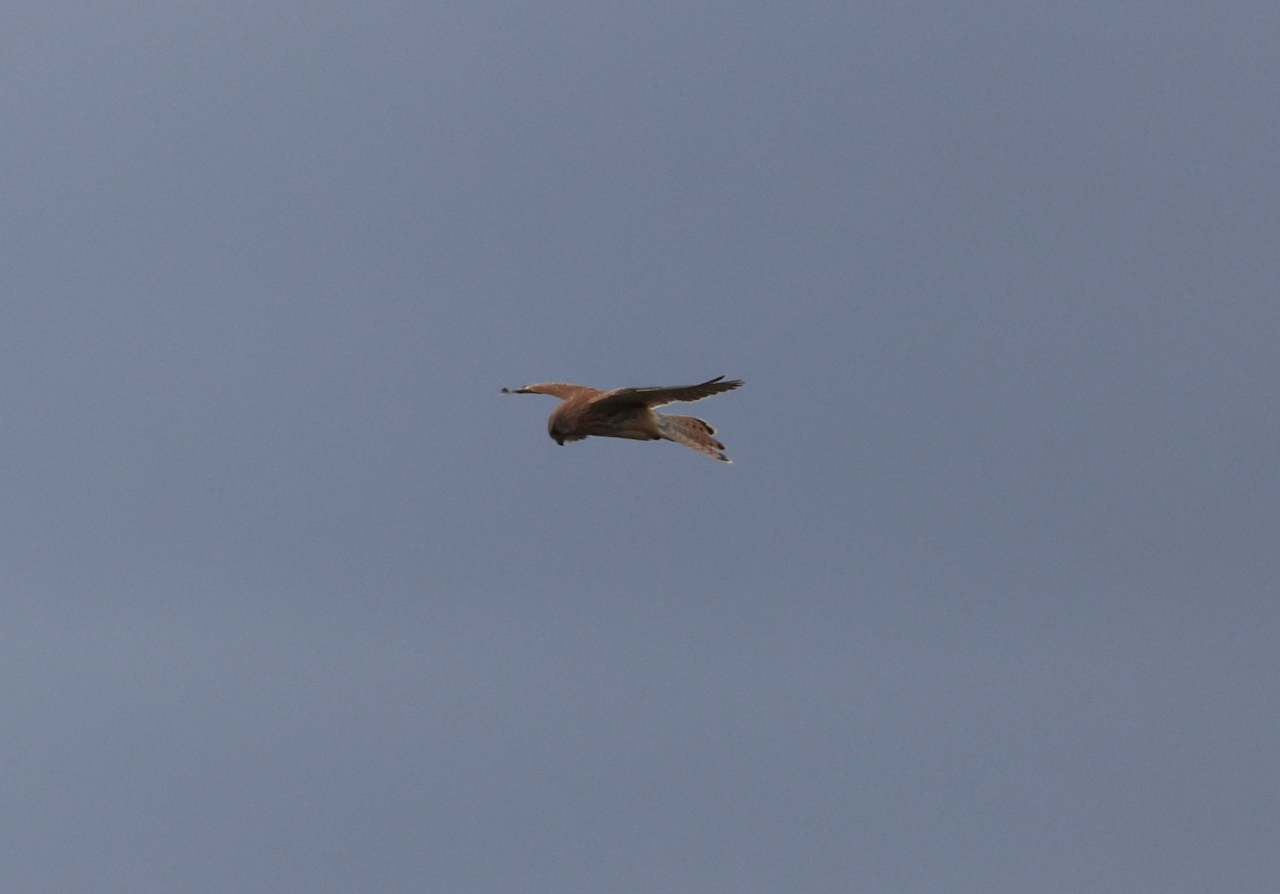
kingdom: Animalia
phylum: Chordata
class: Aves
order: Falconiformes
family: Falconidae
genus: Falco
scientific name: Falco tinnunculus
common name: Common kestrel
